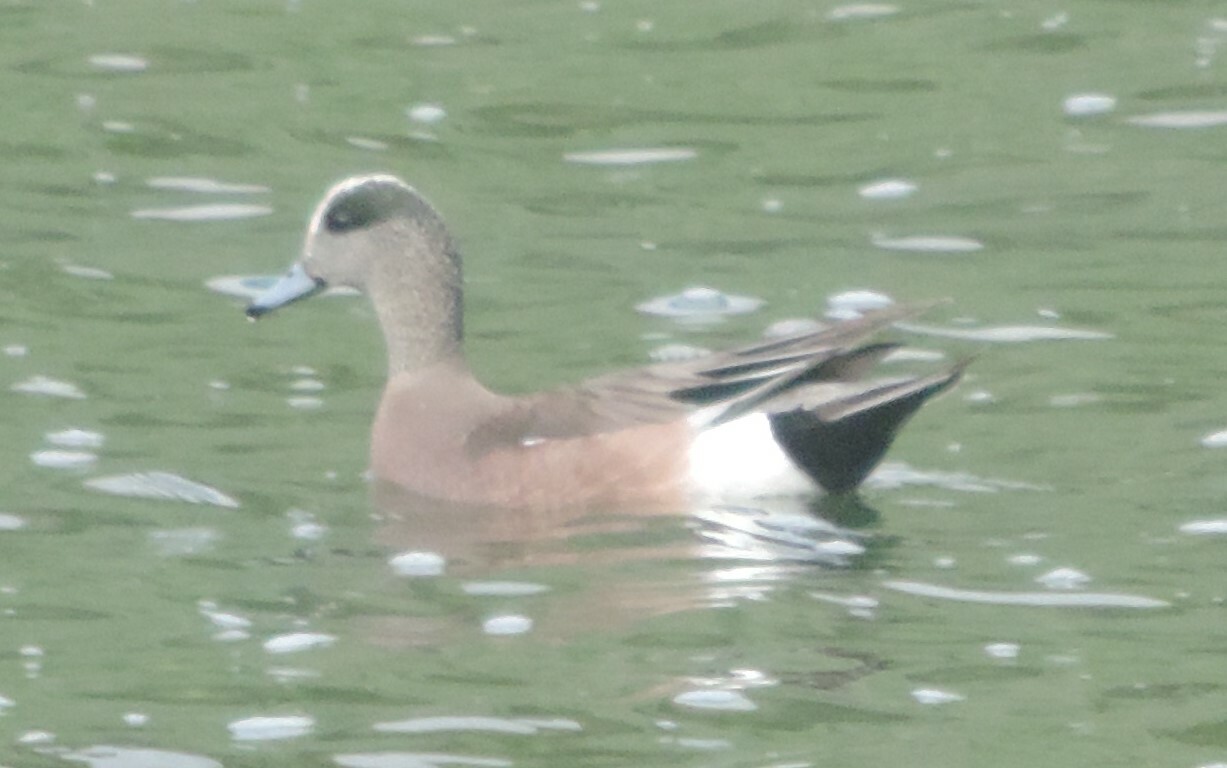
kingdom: Animalia
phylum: Chordata
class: Aves
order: Anseriformes
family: Anatidae
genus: Mareca
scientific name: Mareca americana
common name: American wigeon
